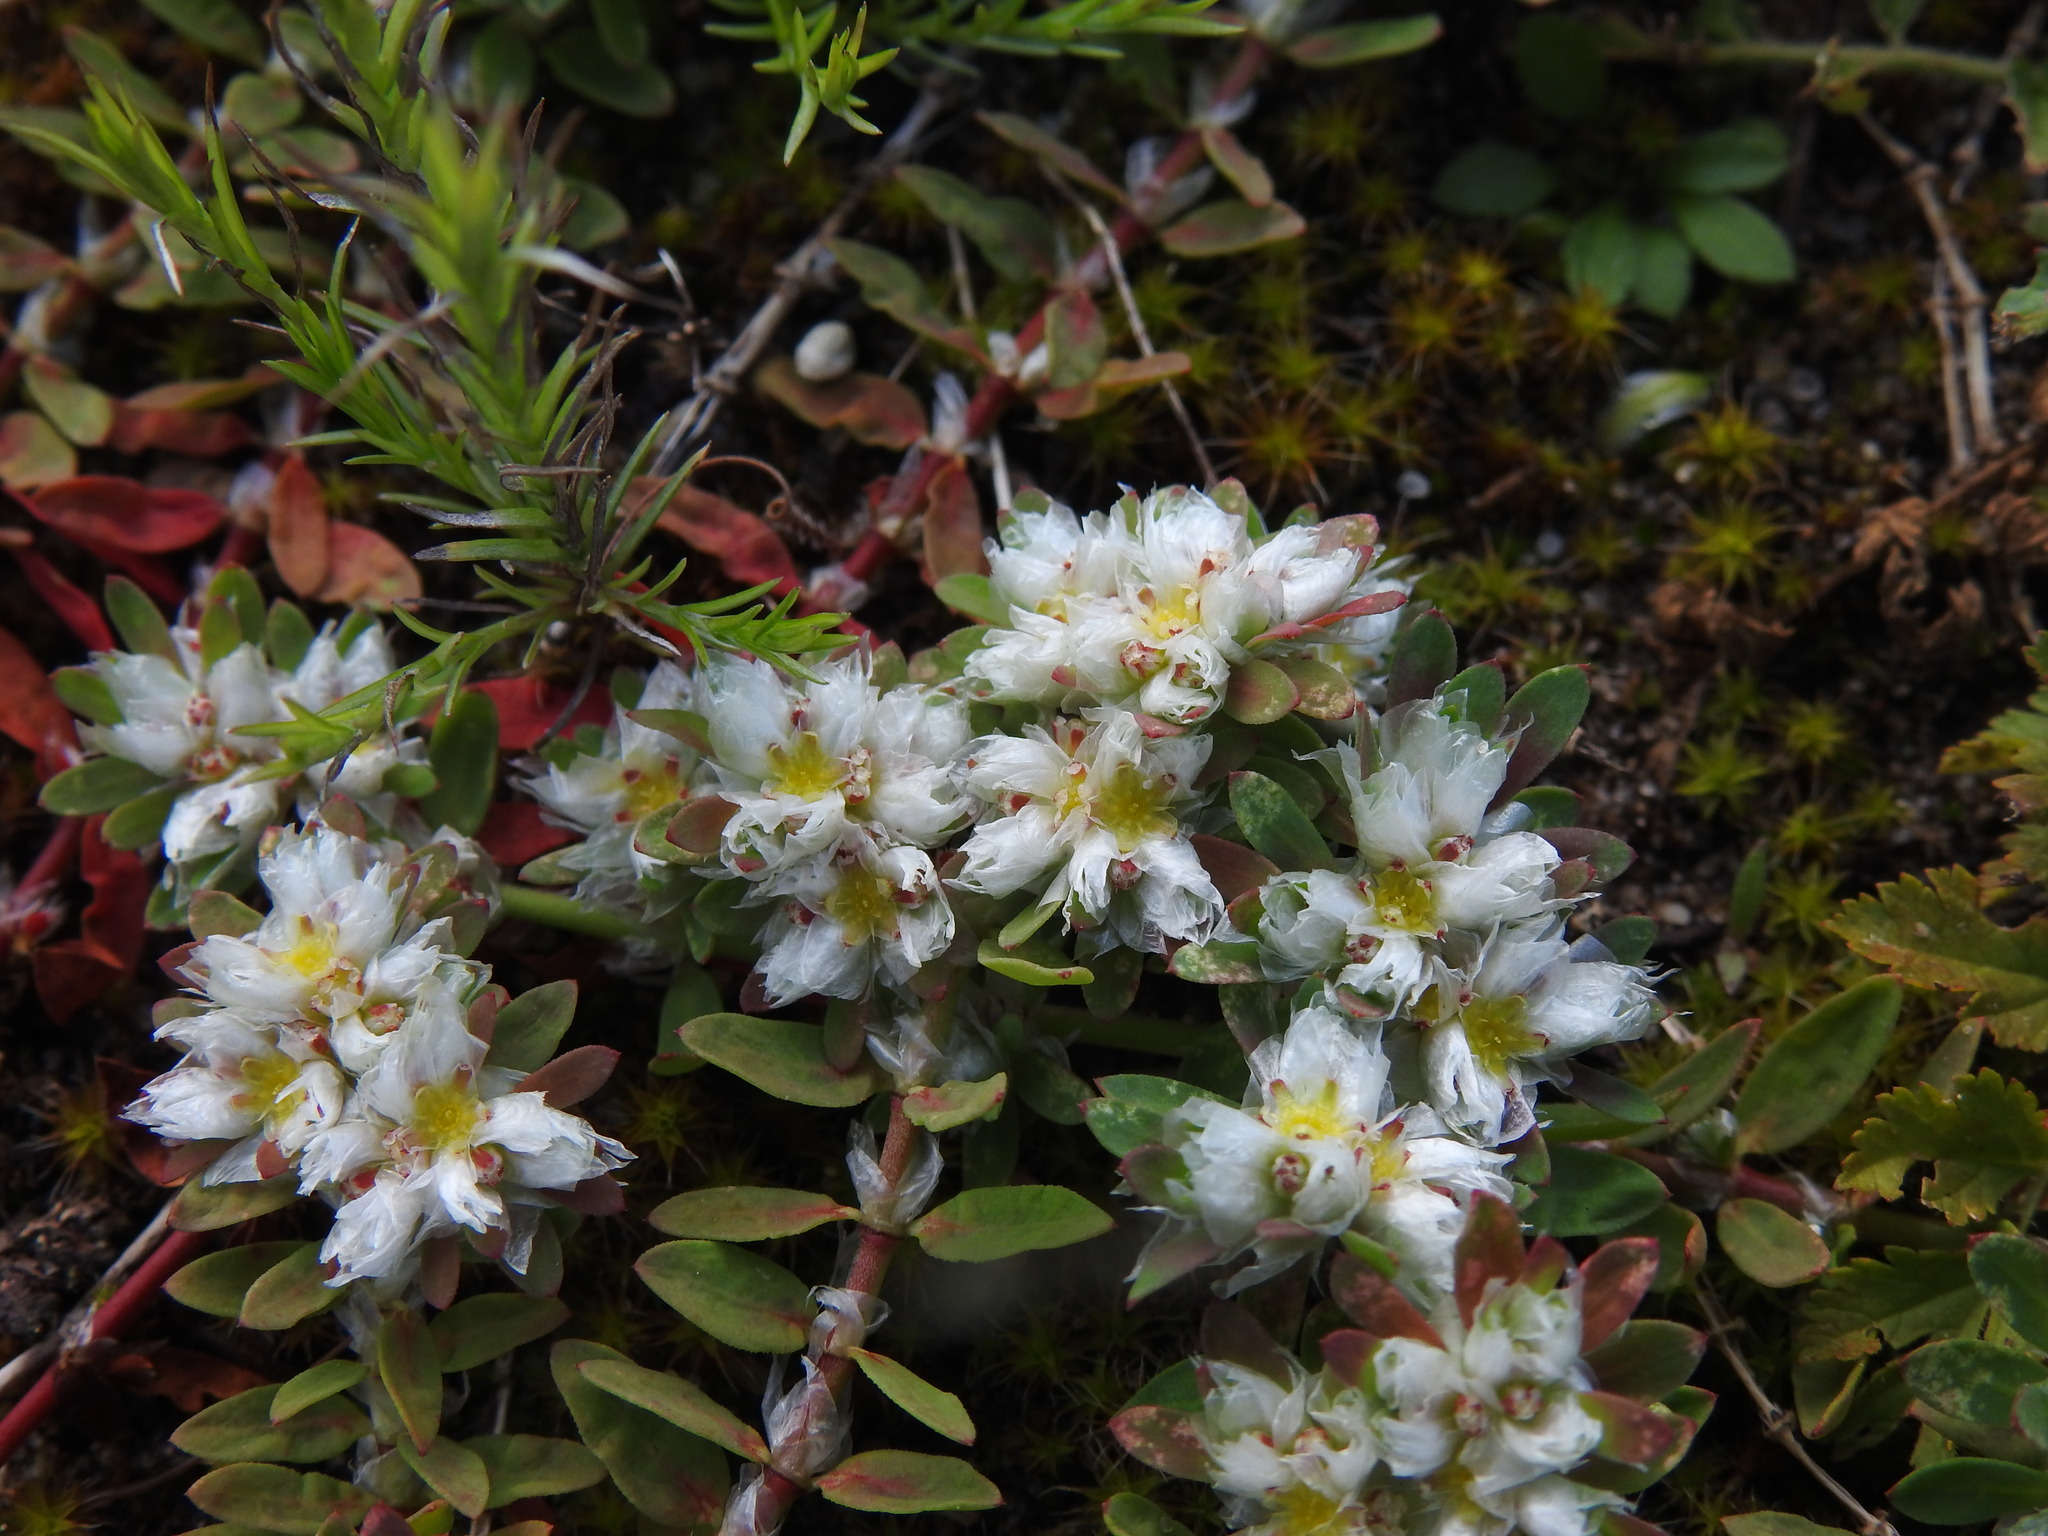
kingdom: Plantae
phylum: Tracheophyta
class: Magnoliopsida
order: Caryophyllales
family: Caryophyllaceae
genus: Paronychia
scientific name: Paronychia argentea
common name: Silver nailroot
